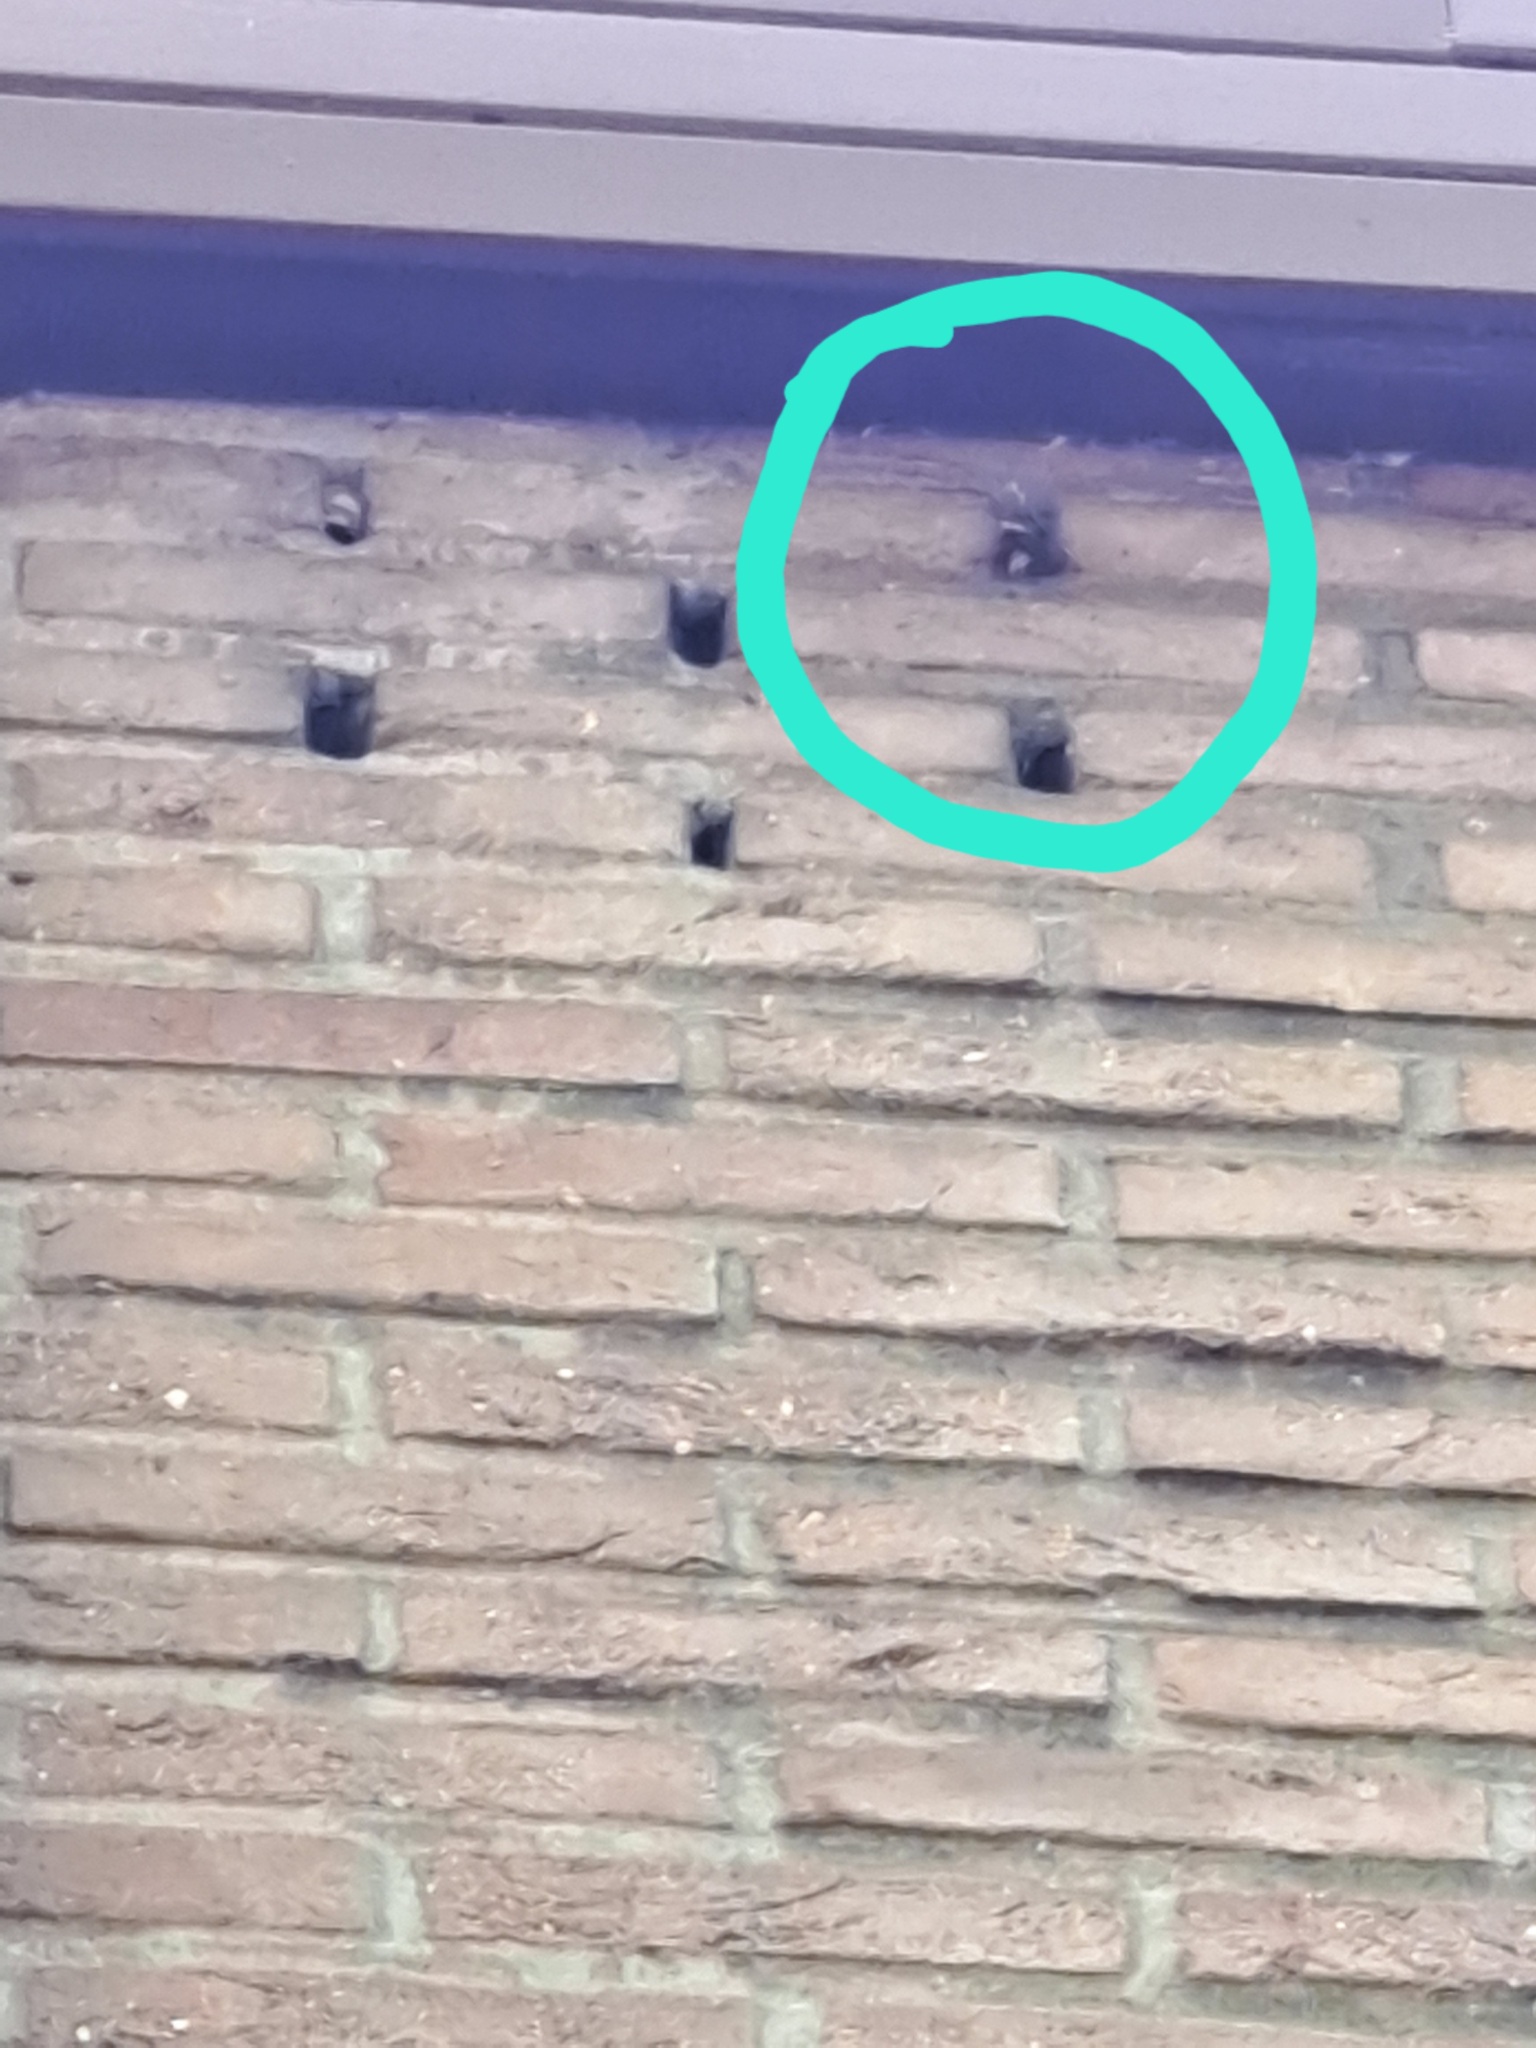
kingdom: Animalia
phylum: Arthropoda
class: Insecta
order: Hymenoptera
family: Vespidae
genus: Vespa
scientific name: Vespa velutina
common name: Asian hornet
